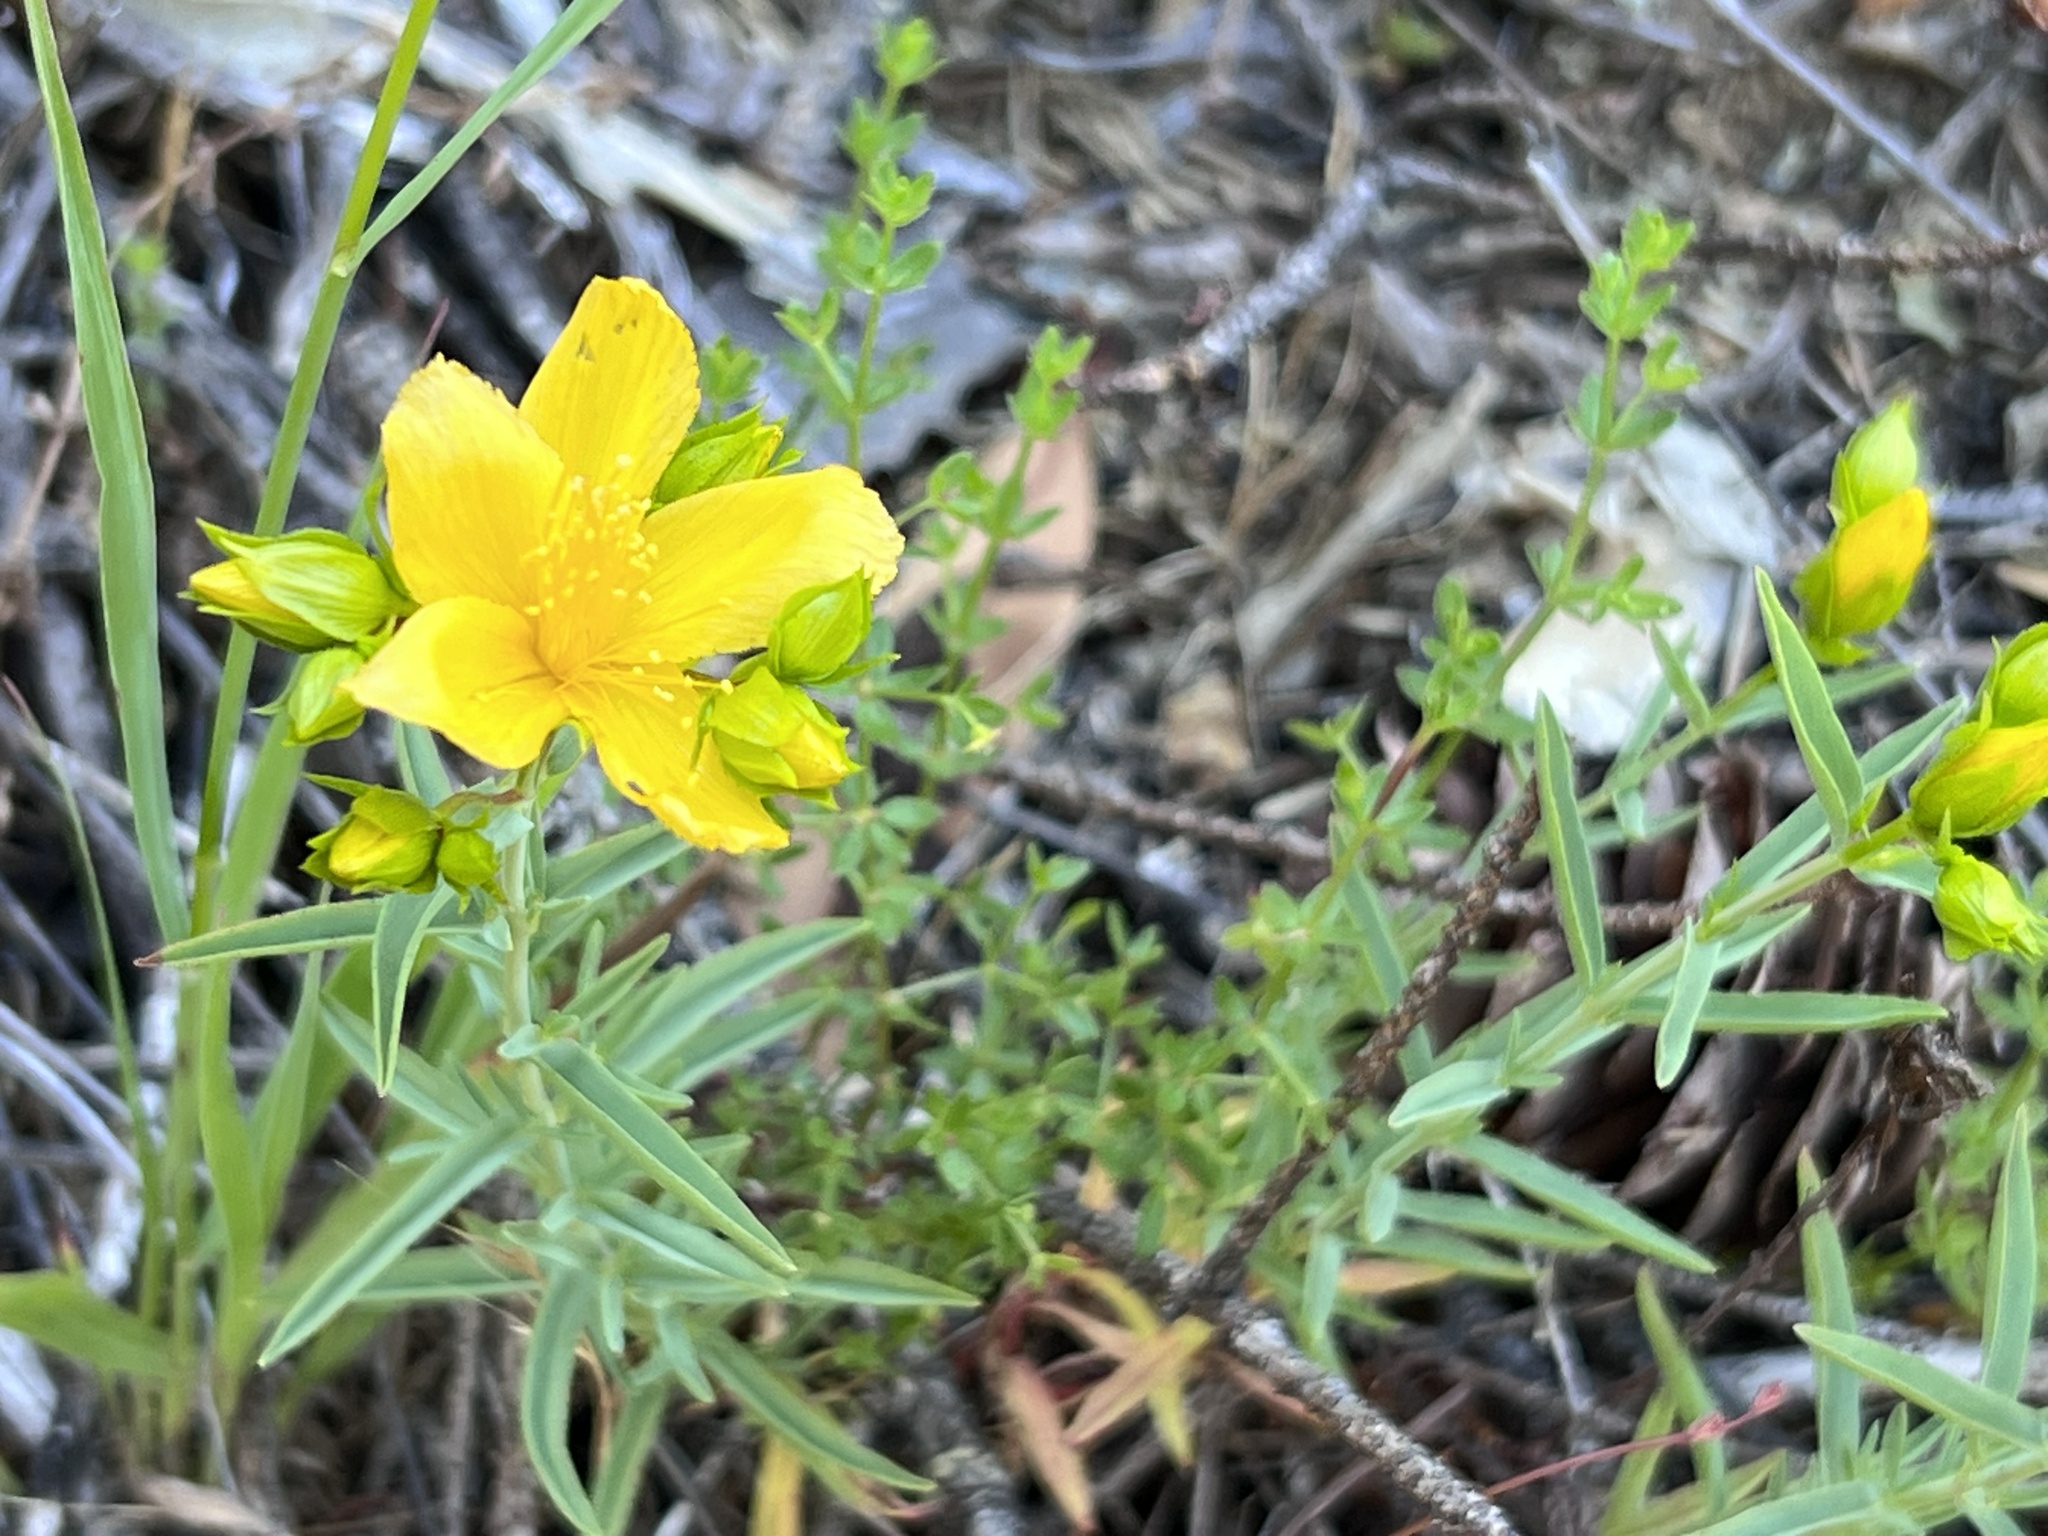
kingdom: Plantae
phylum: Tracheophyta
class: Magnoliopsida
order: Malpighiales
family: Hypericaceae
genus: Hypericum
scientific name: Hypericum concinnum
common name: Gold-wire
